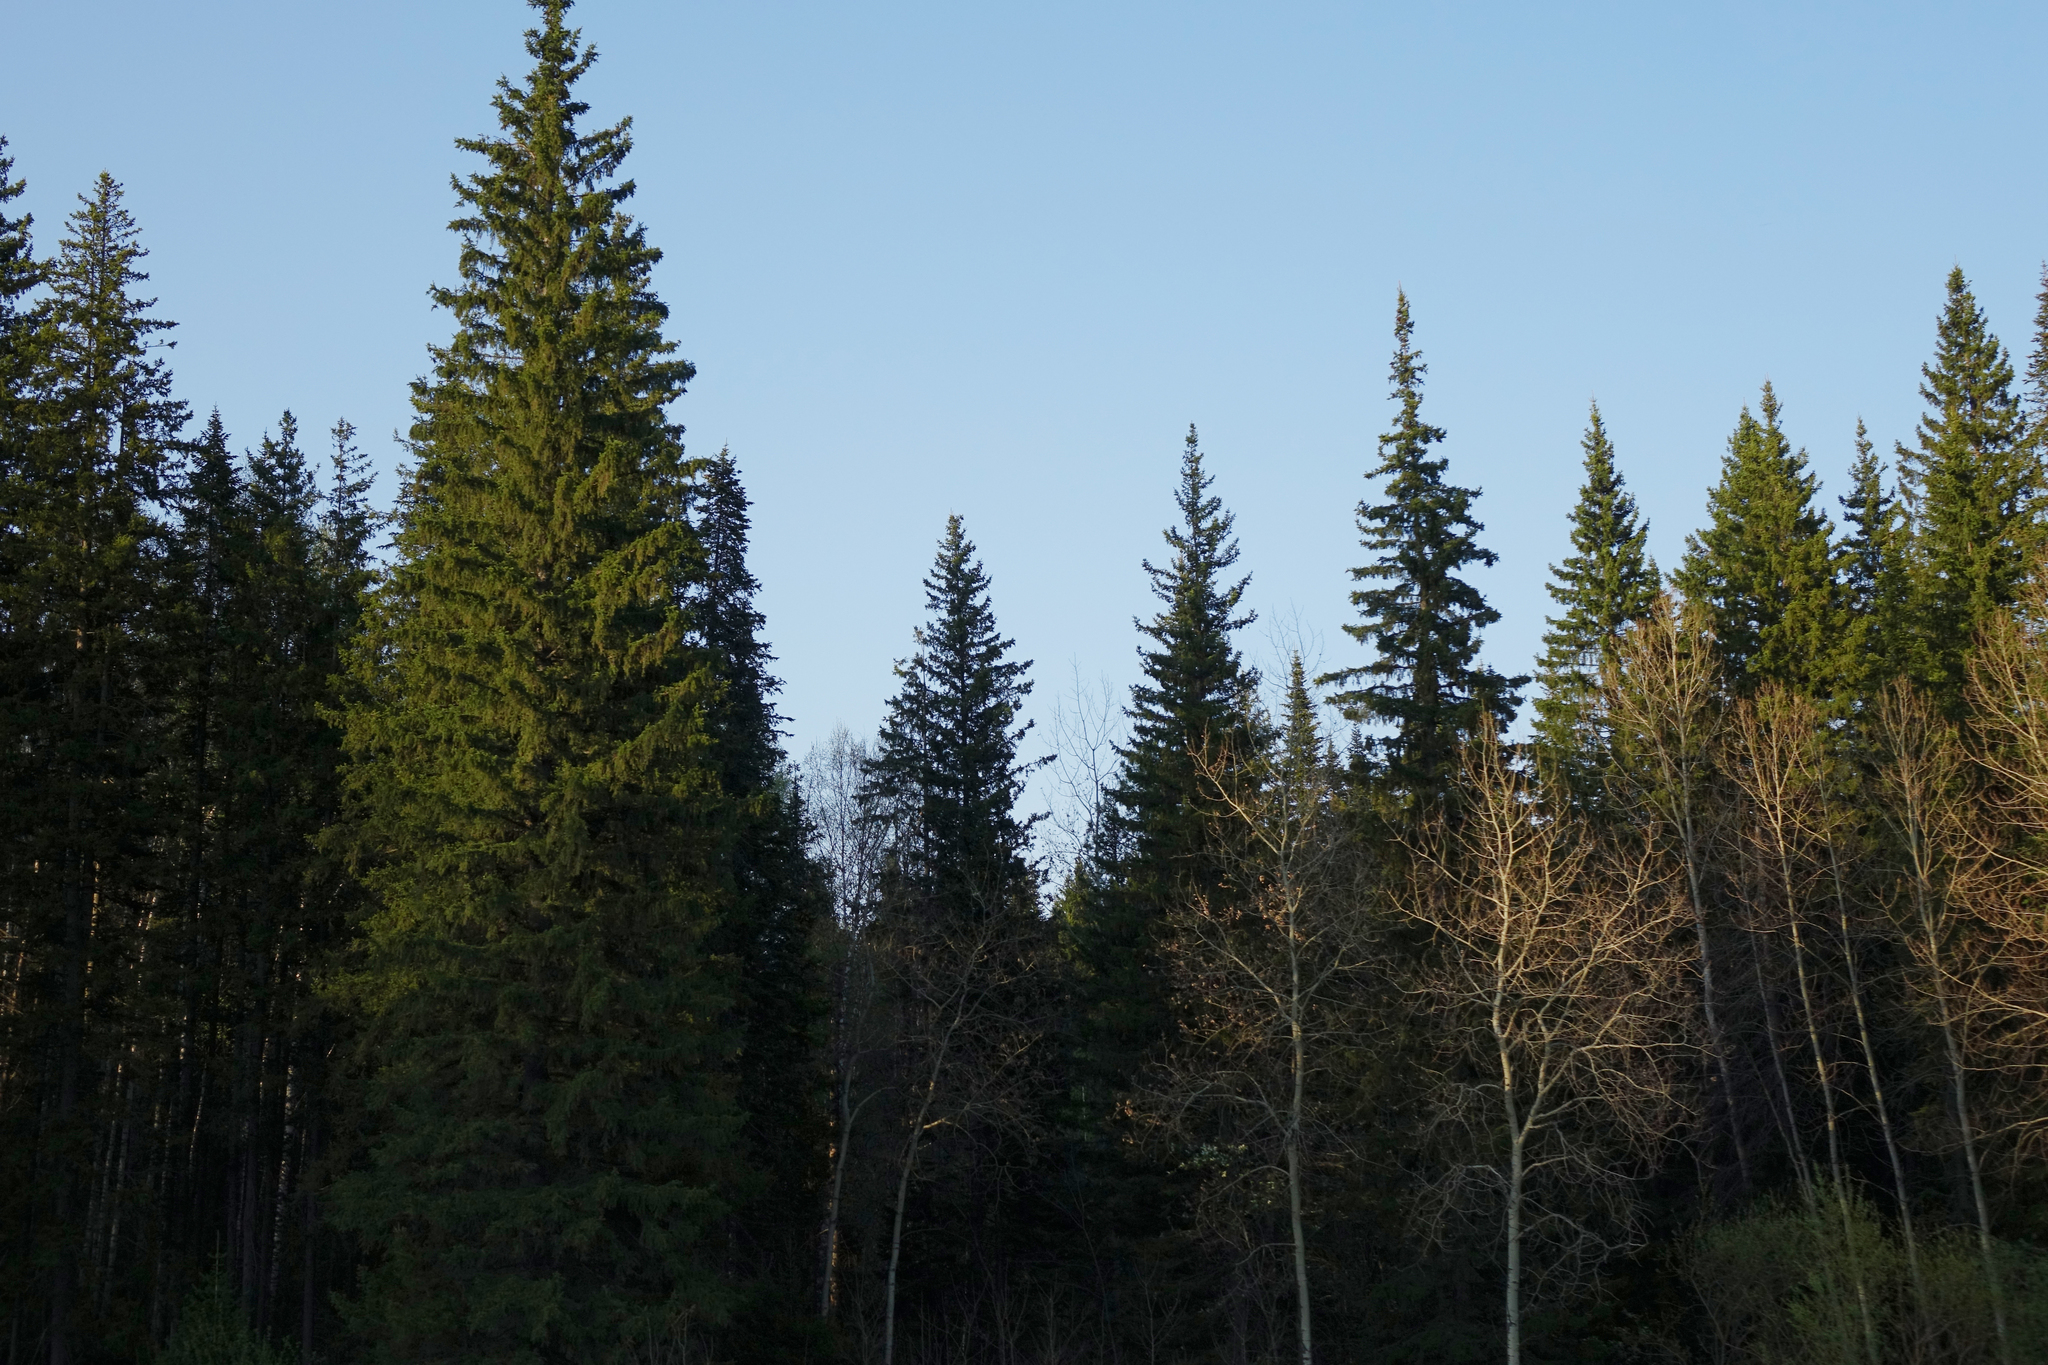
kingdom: Plantae
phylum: Tracheophyta
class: Pinopsida
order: Pinales
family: Pinaceae
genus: Abies
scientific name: Abies sibirica
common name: Siberian fir
